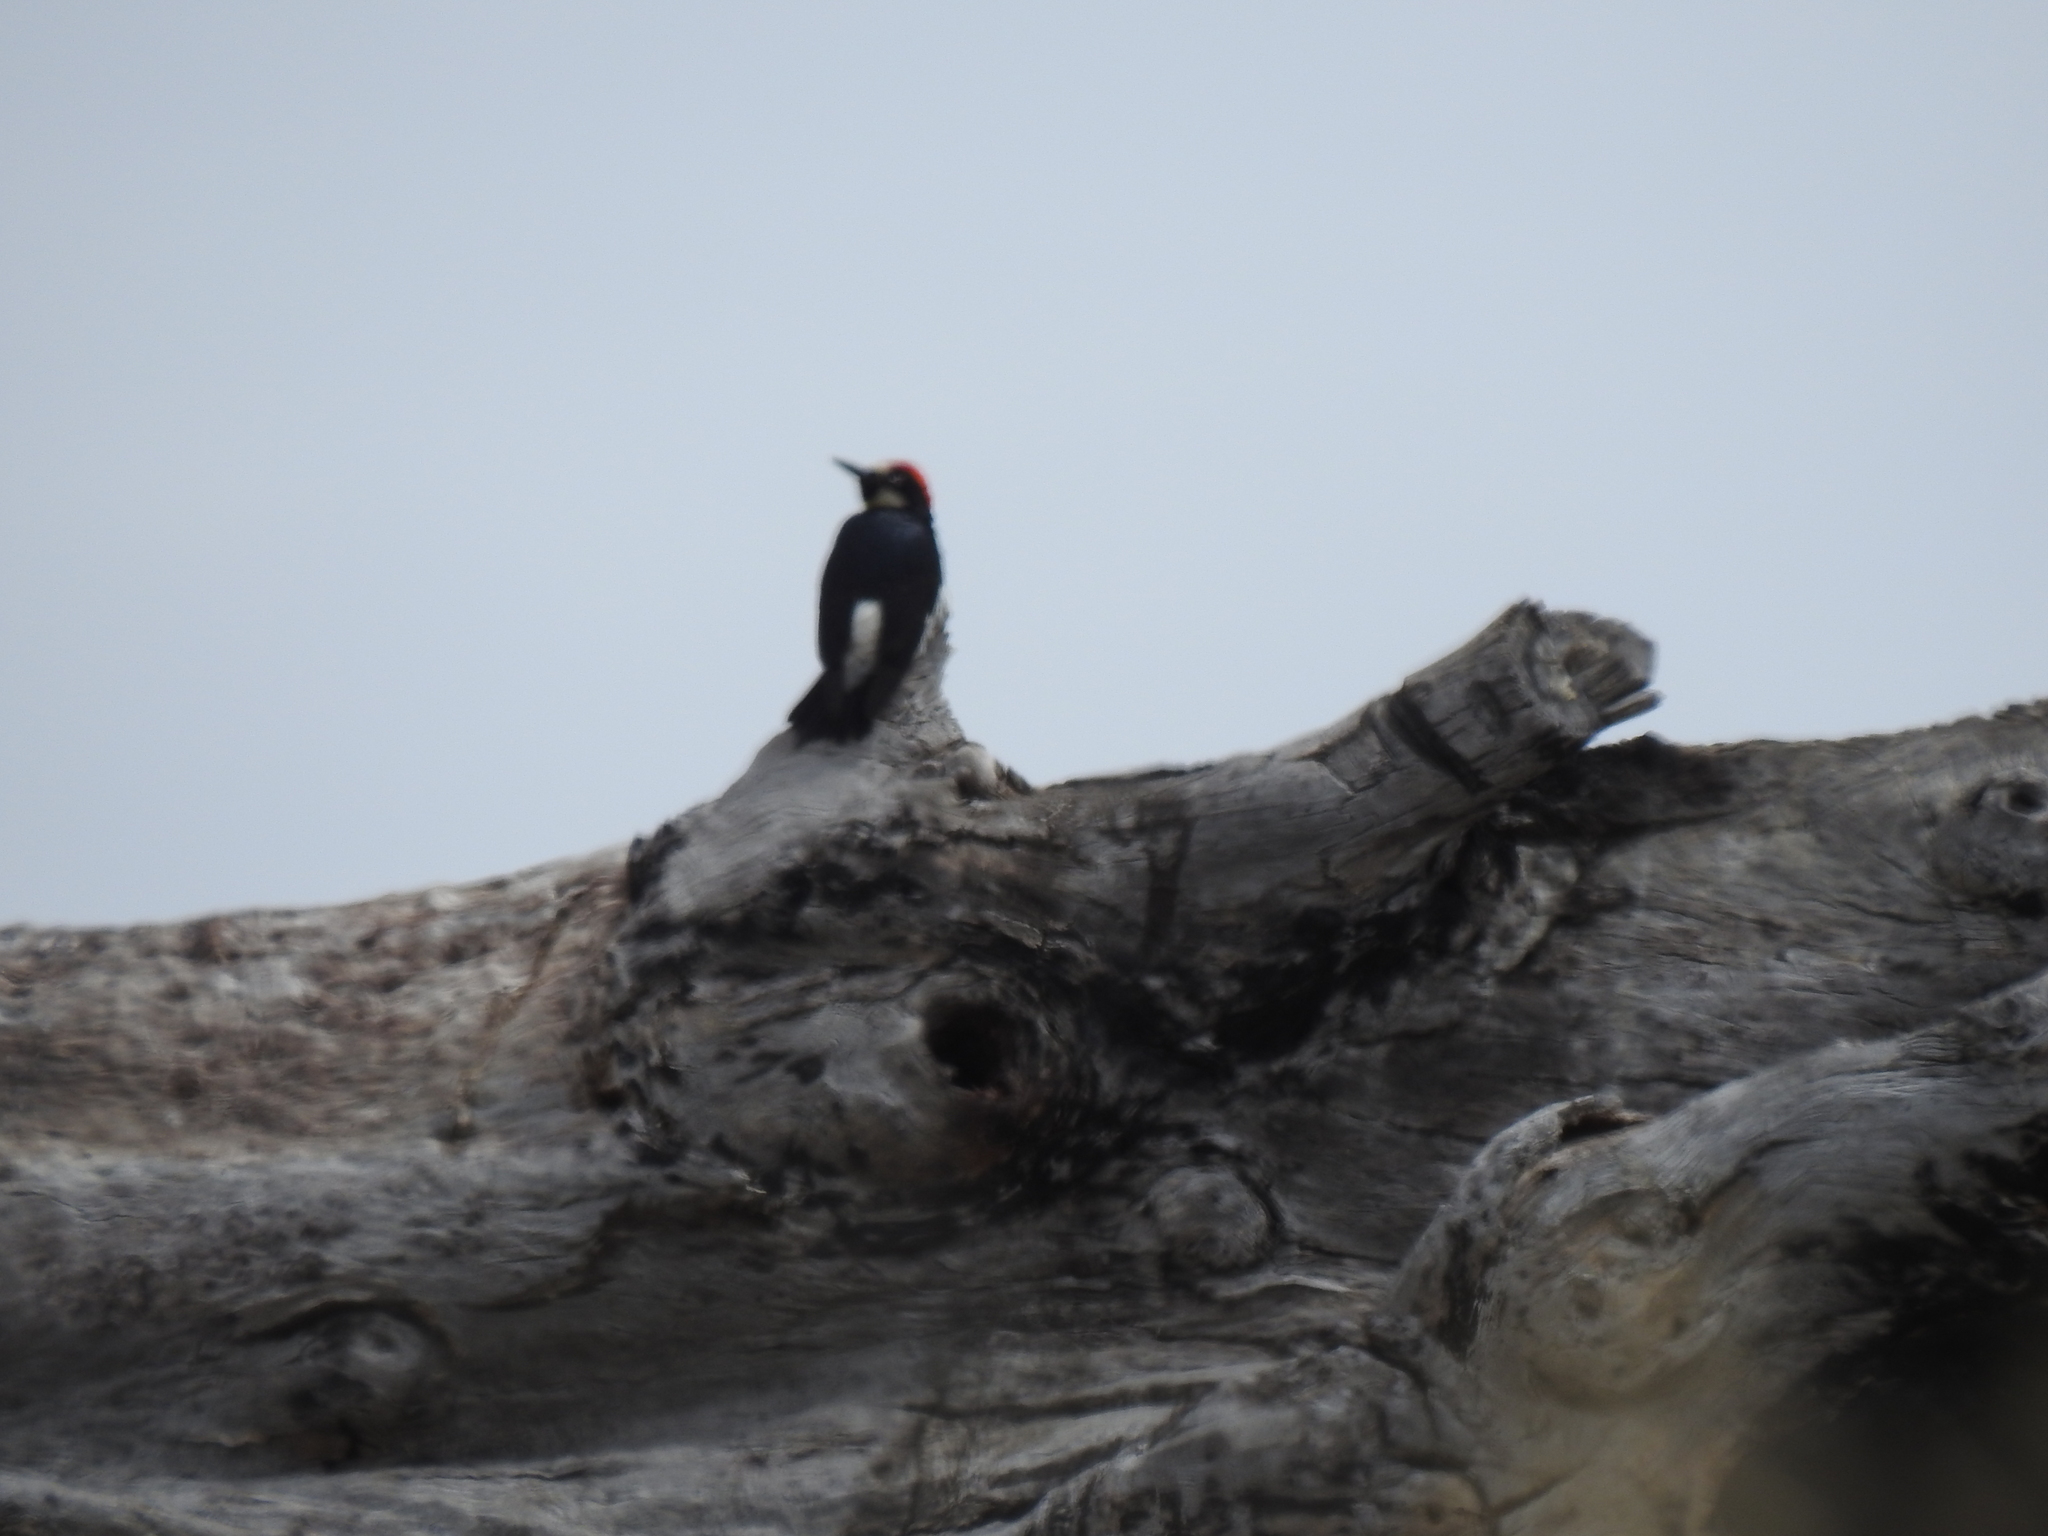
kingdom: Animalia
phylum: Chordata
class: Aves
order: Piciformes
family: Picidae
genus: Melanerpes
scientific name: Melanerpes formicivorus
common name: Acorn woodpecker
